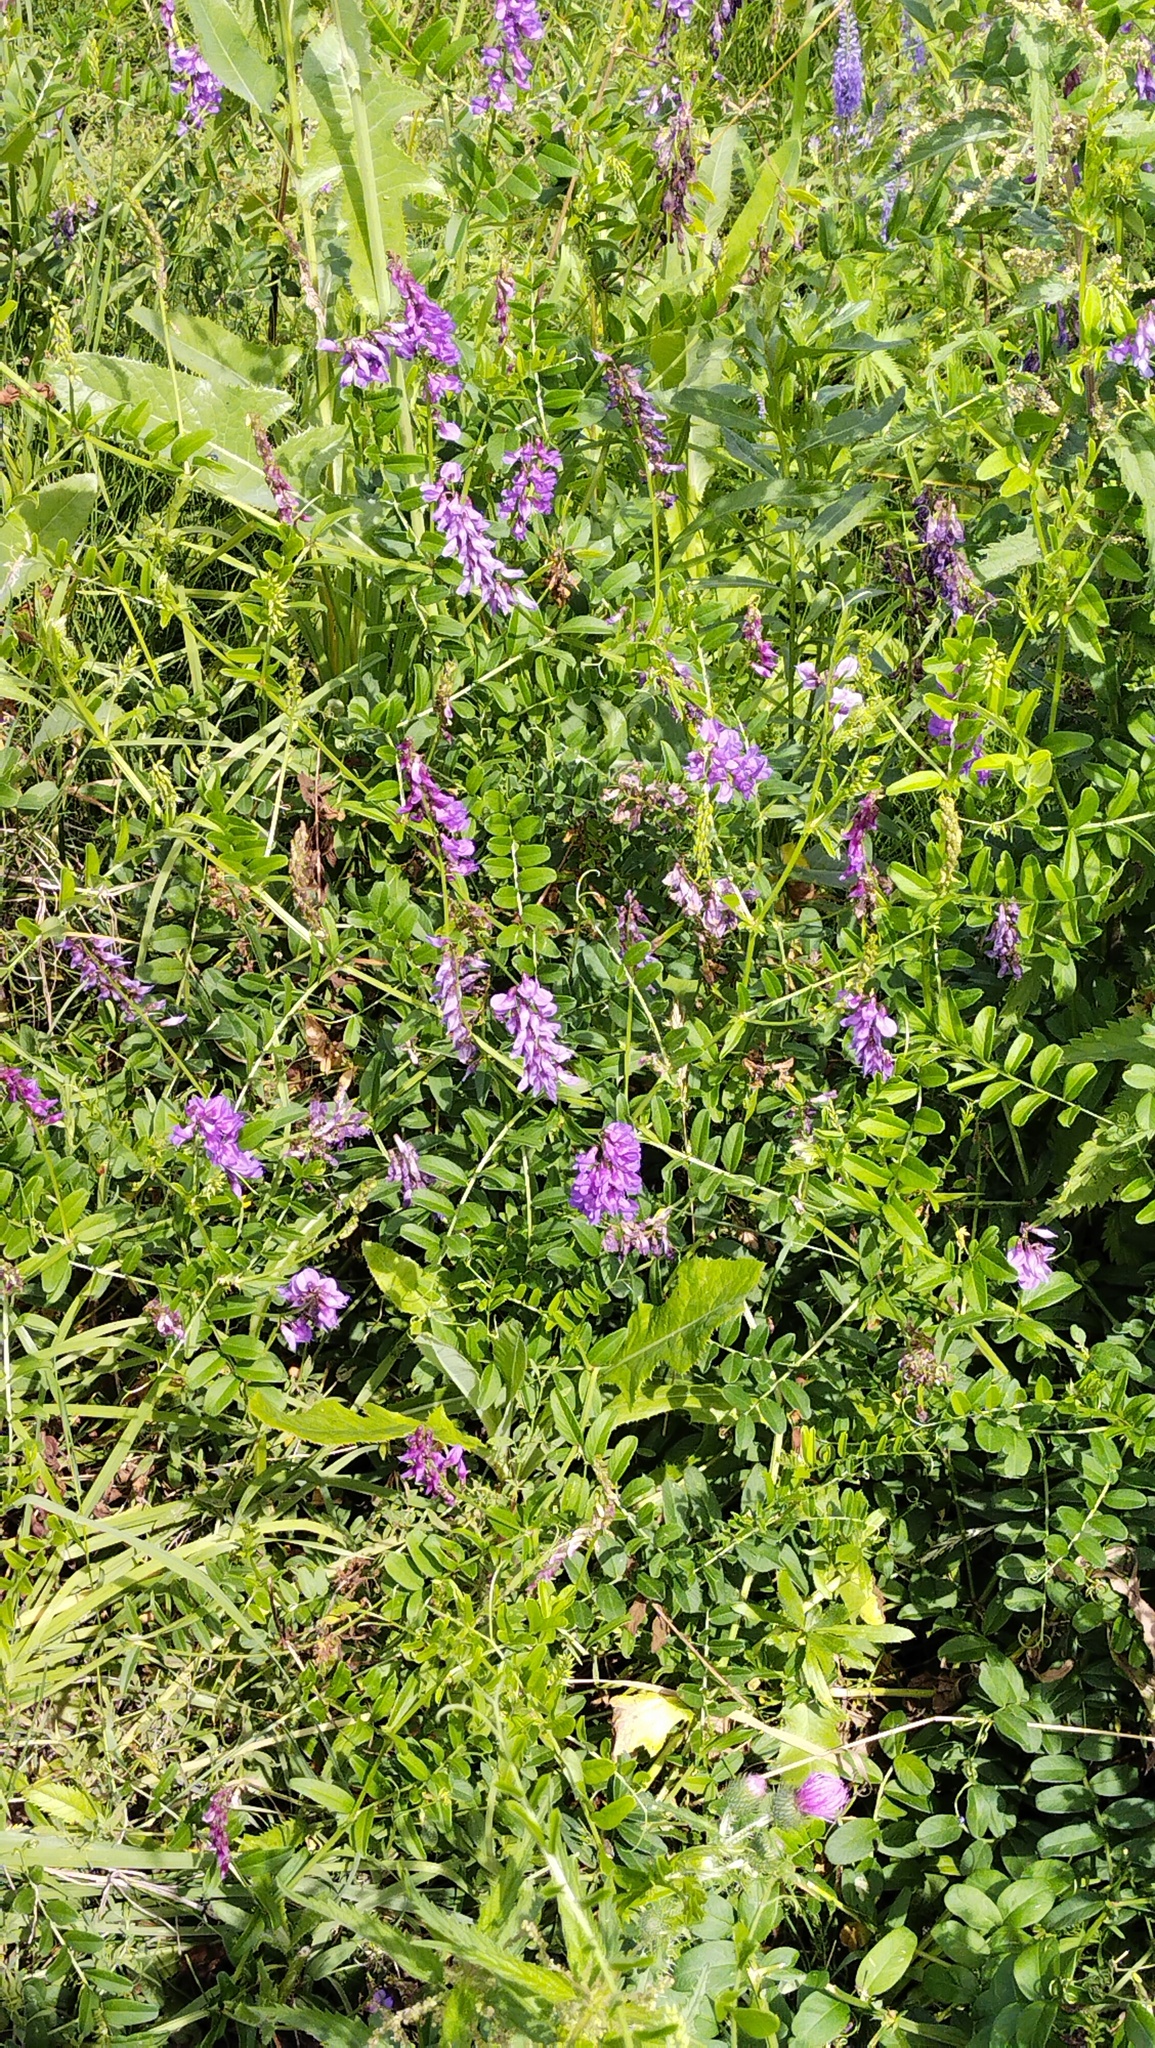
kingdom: Plantae
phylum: Tracheophyta
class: Magnoliopsida
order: Fabales
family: Fabaceae
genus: Vicia
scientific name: Vicia amoena
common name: Cheder ebs
